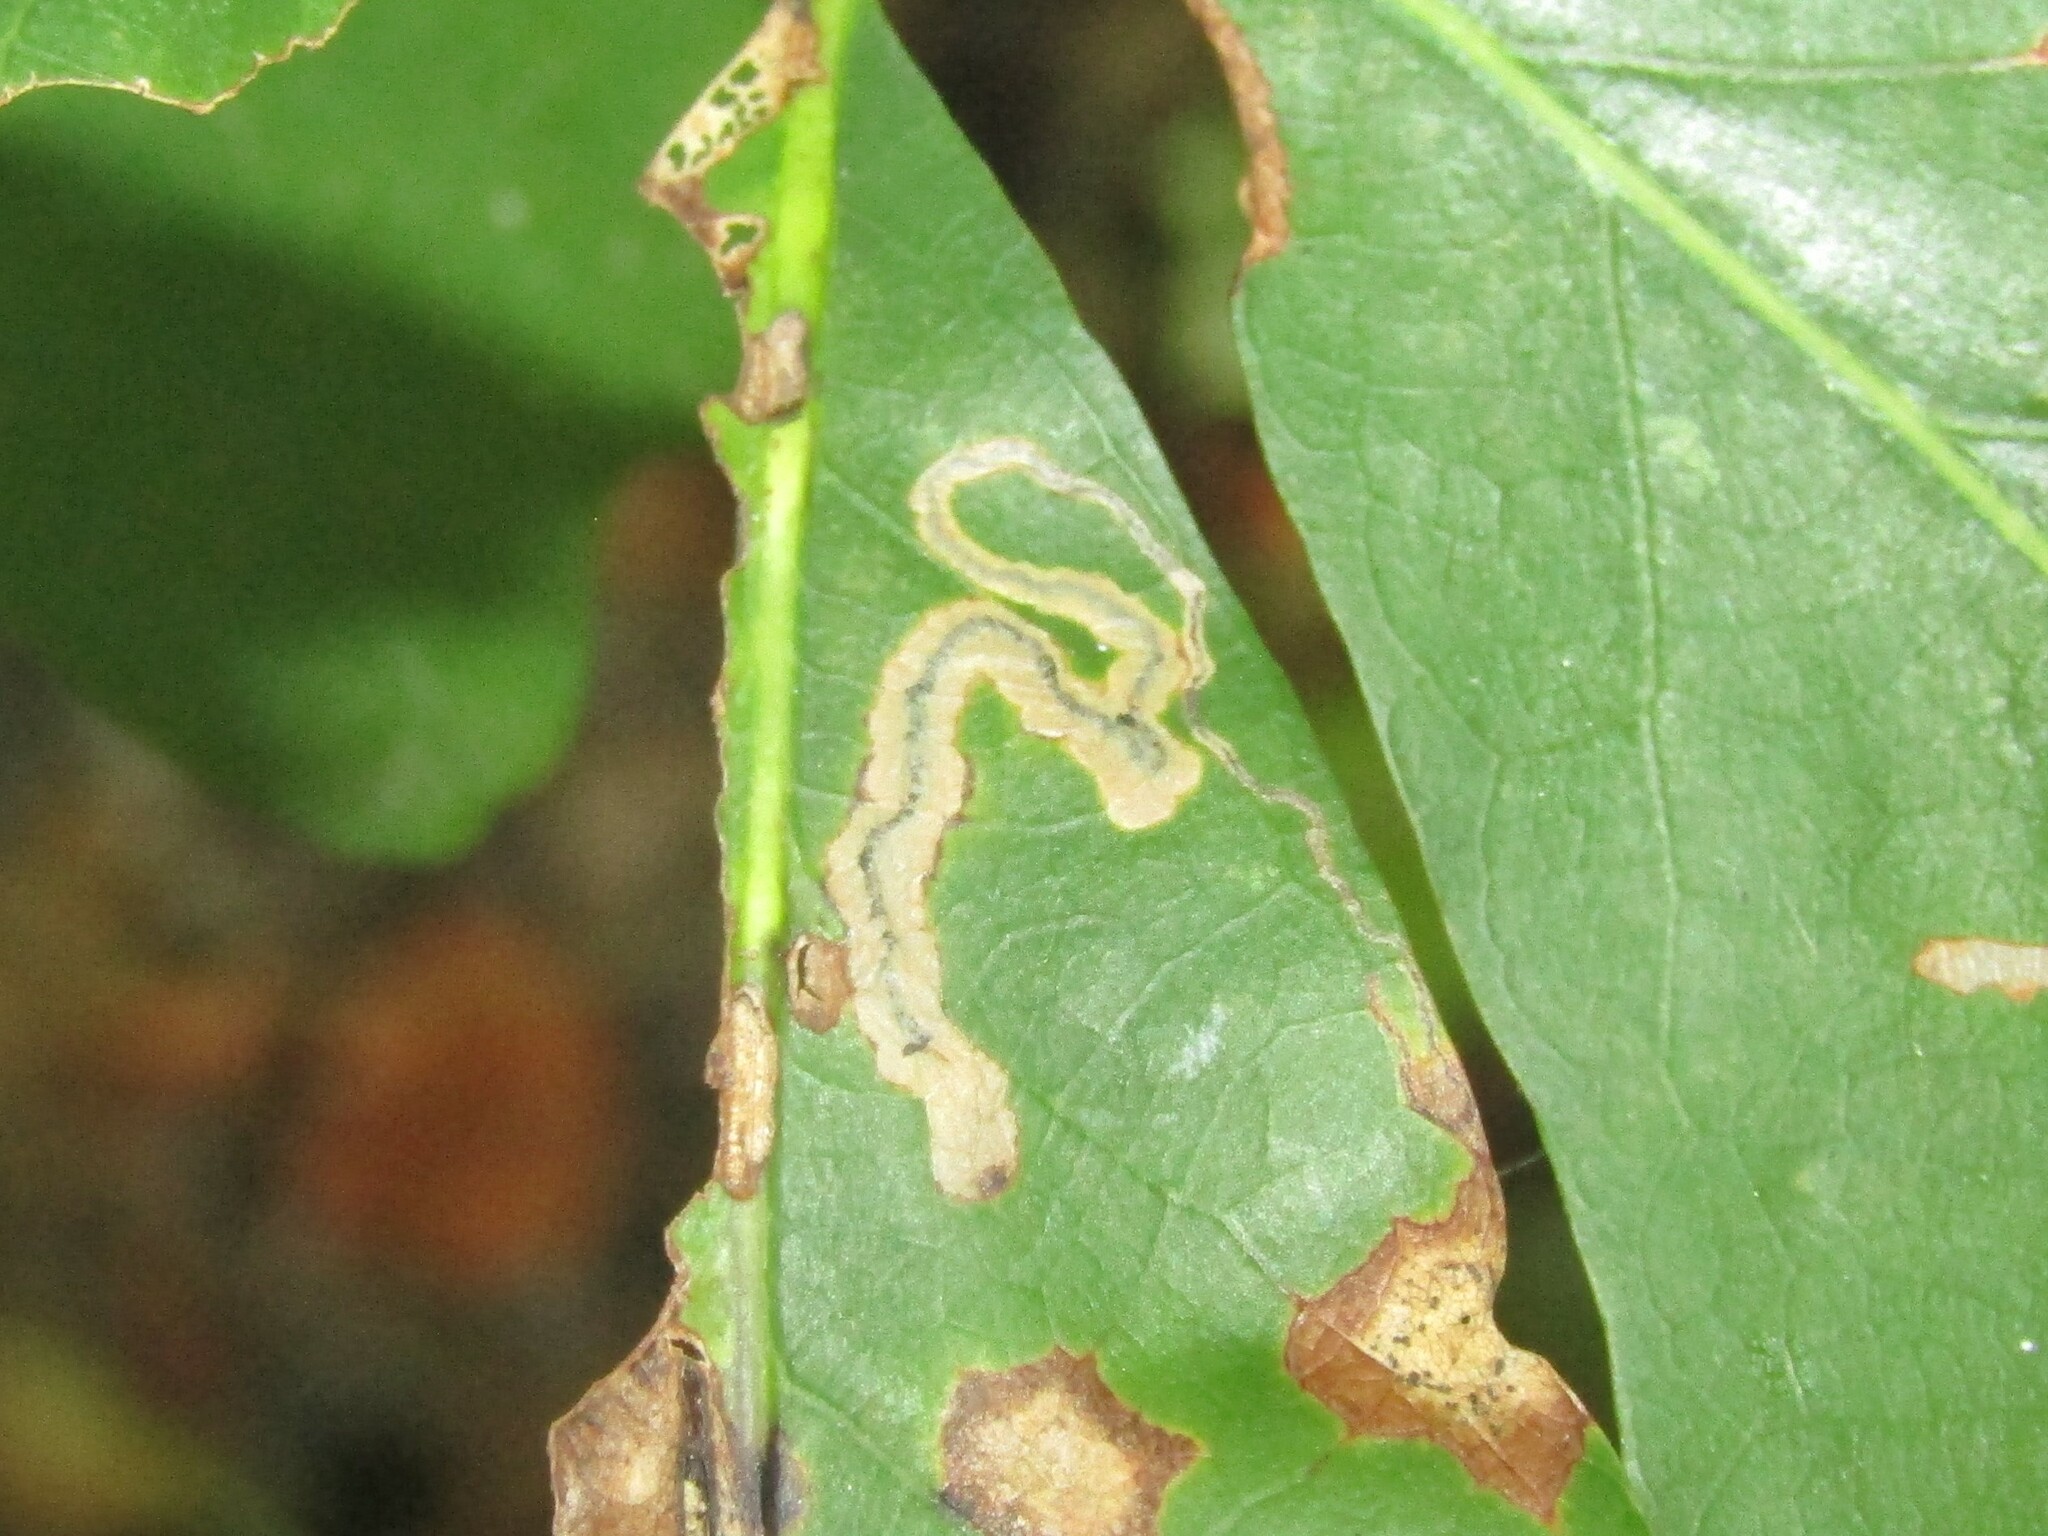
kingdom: Animalia
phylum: Arthropoda
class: Insecta
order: Lepidoptera
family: Nepticulidae
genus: Stigmella
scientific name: Stigmella quercipulchella
